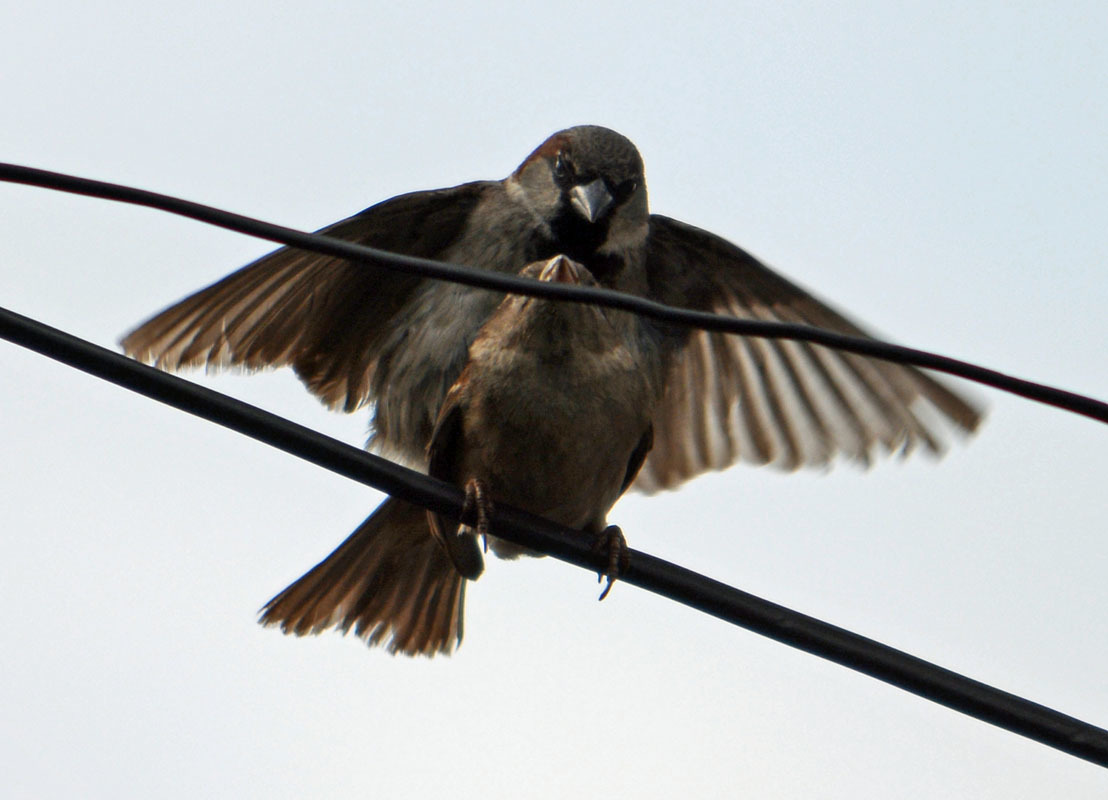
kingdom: Animalia
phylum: Chordata
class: Aves
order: Passeriformes
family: Passeridae
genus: Passer
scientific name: Passer domesticus
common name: House sparrow
